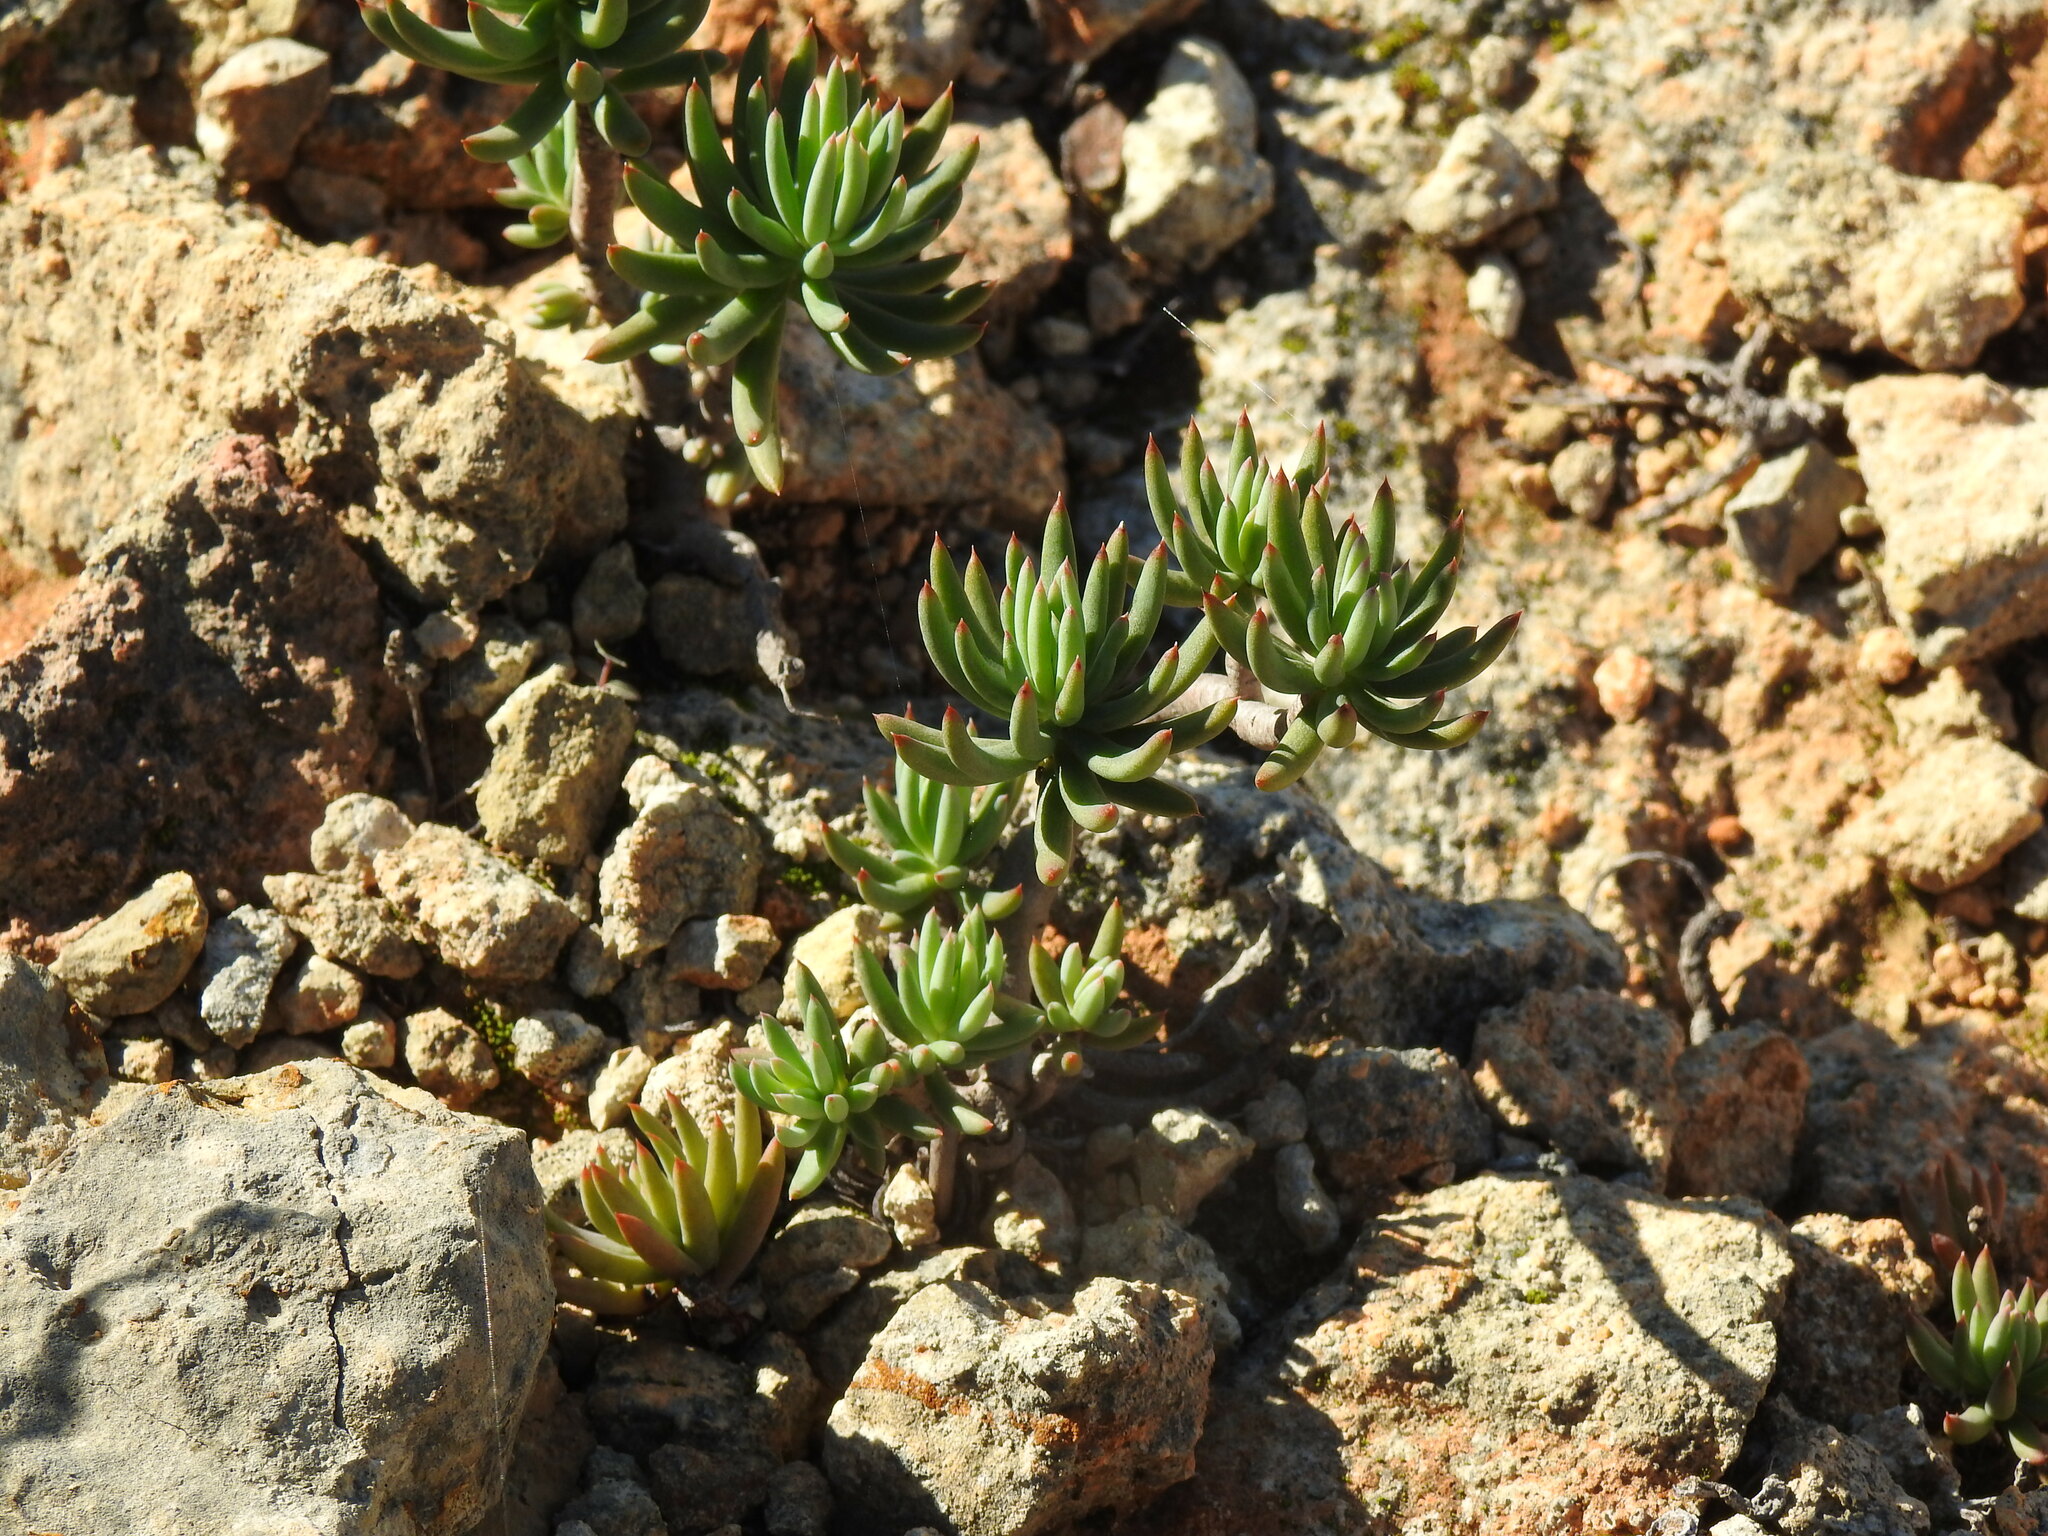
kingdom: Plantae
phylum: Tracheophyta
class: Magnoliopsida
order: Saxifragales
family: Crassulaceae
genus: Petrosedum
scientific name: Petrosedum sediforme
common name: Pale stonecrop
